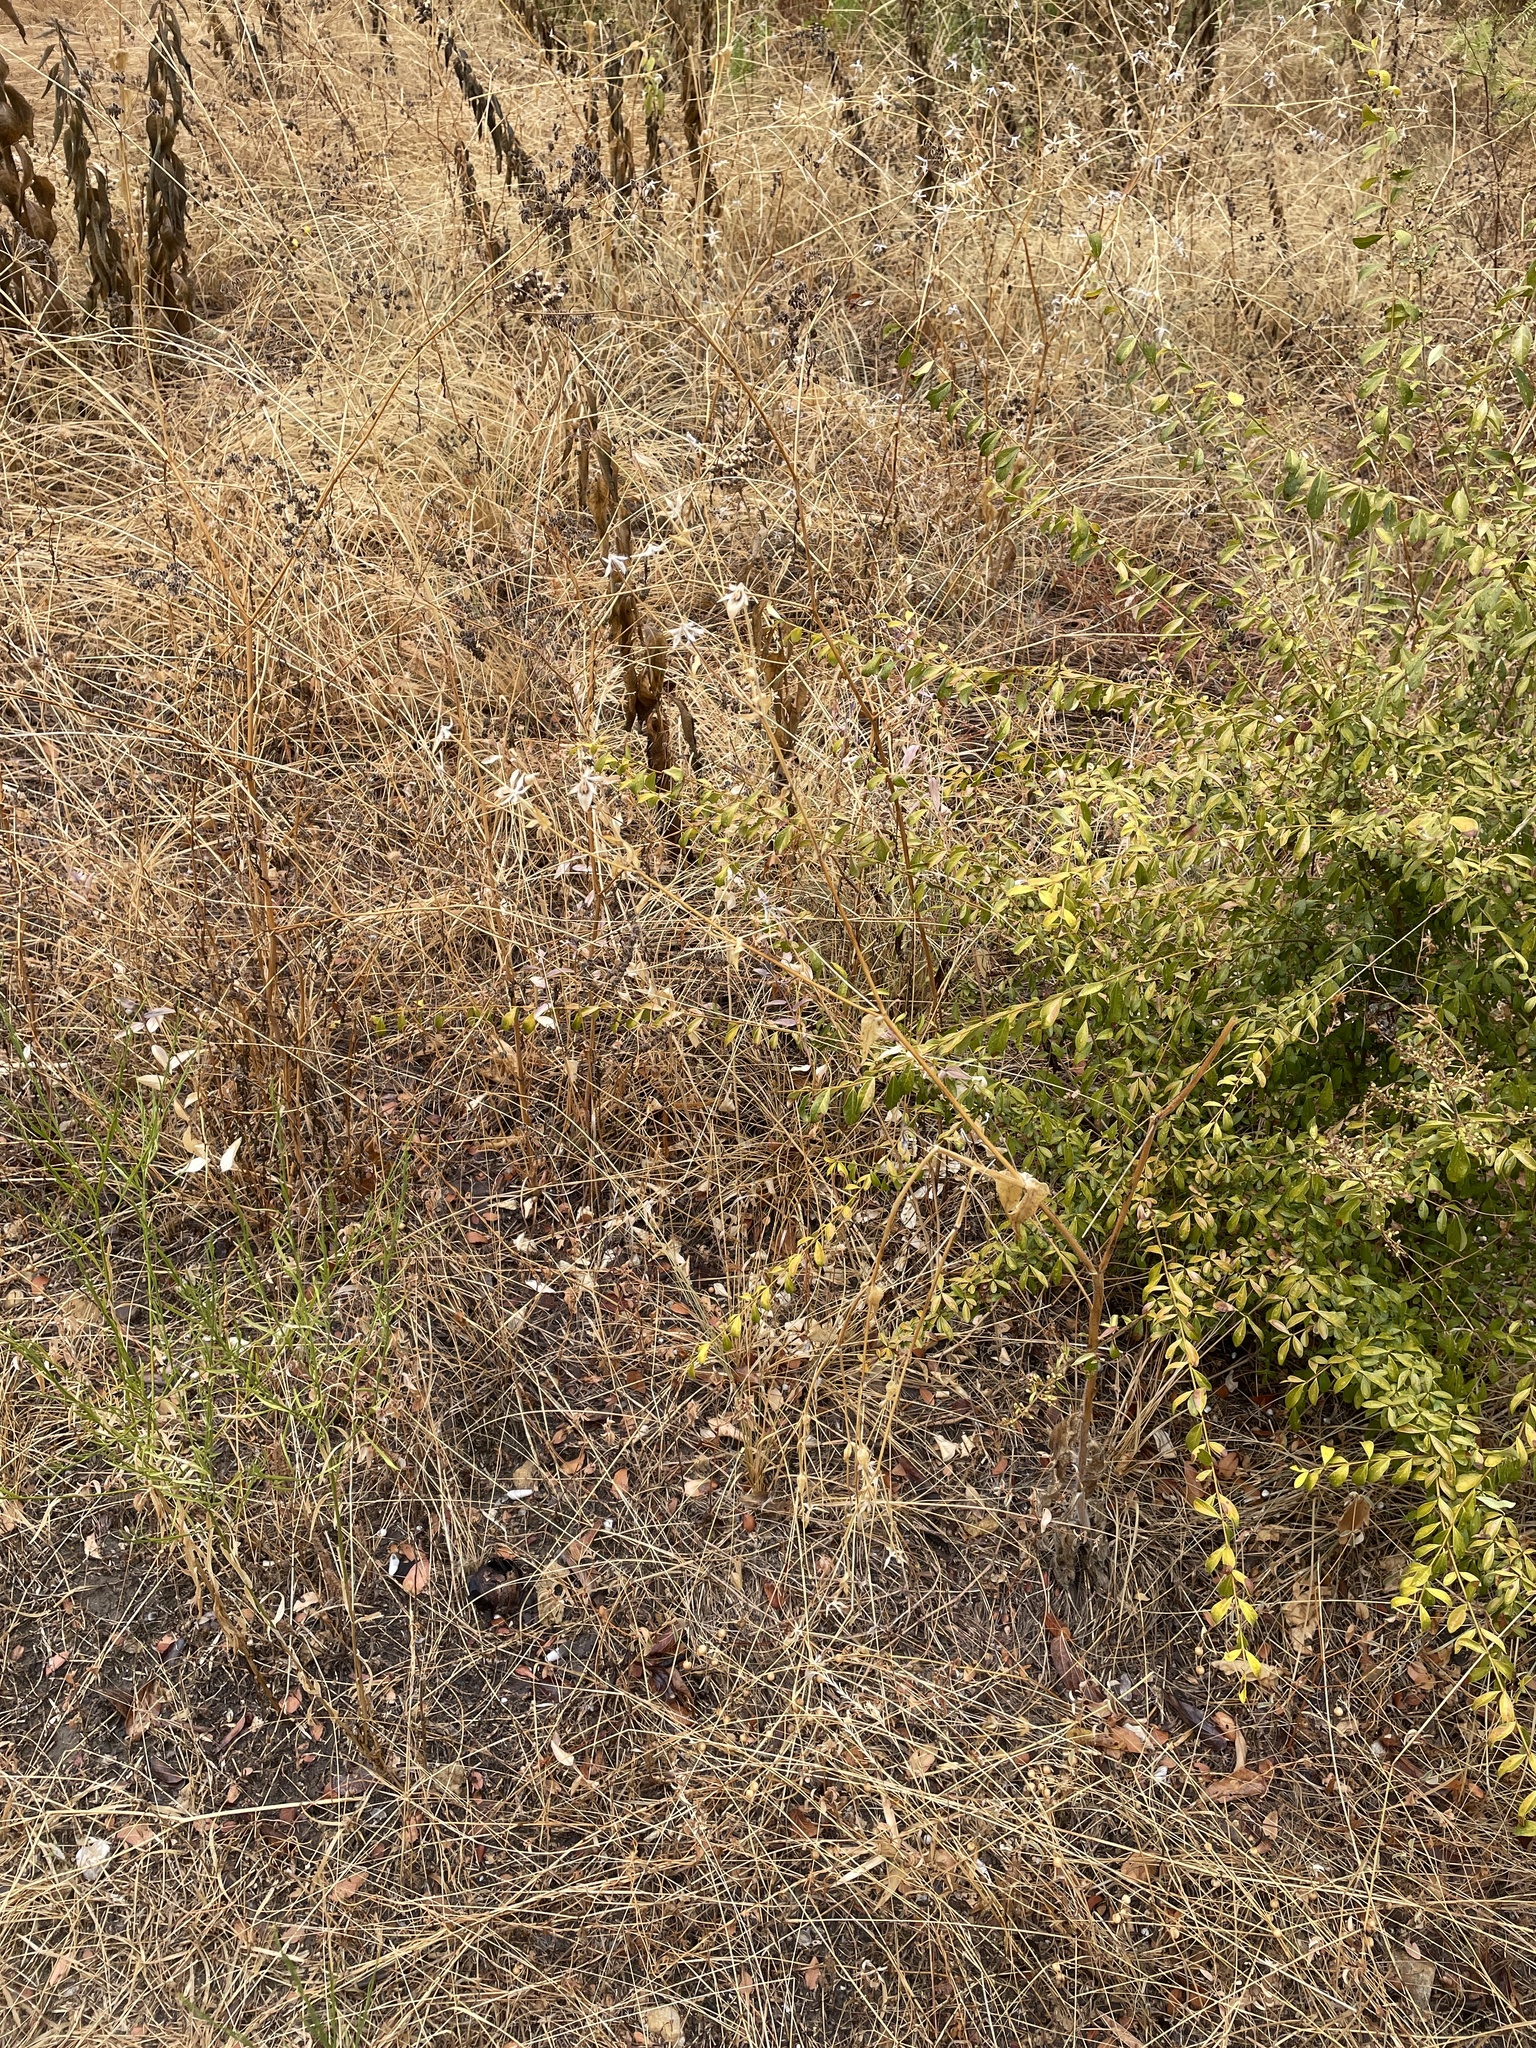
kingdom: Plantae
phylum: Tracheophyta
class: Magnoliopsida
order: Asterales
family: Asteraceae
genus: Lindheimera
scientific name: Lindheimera texana
